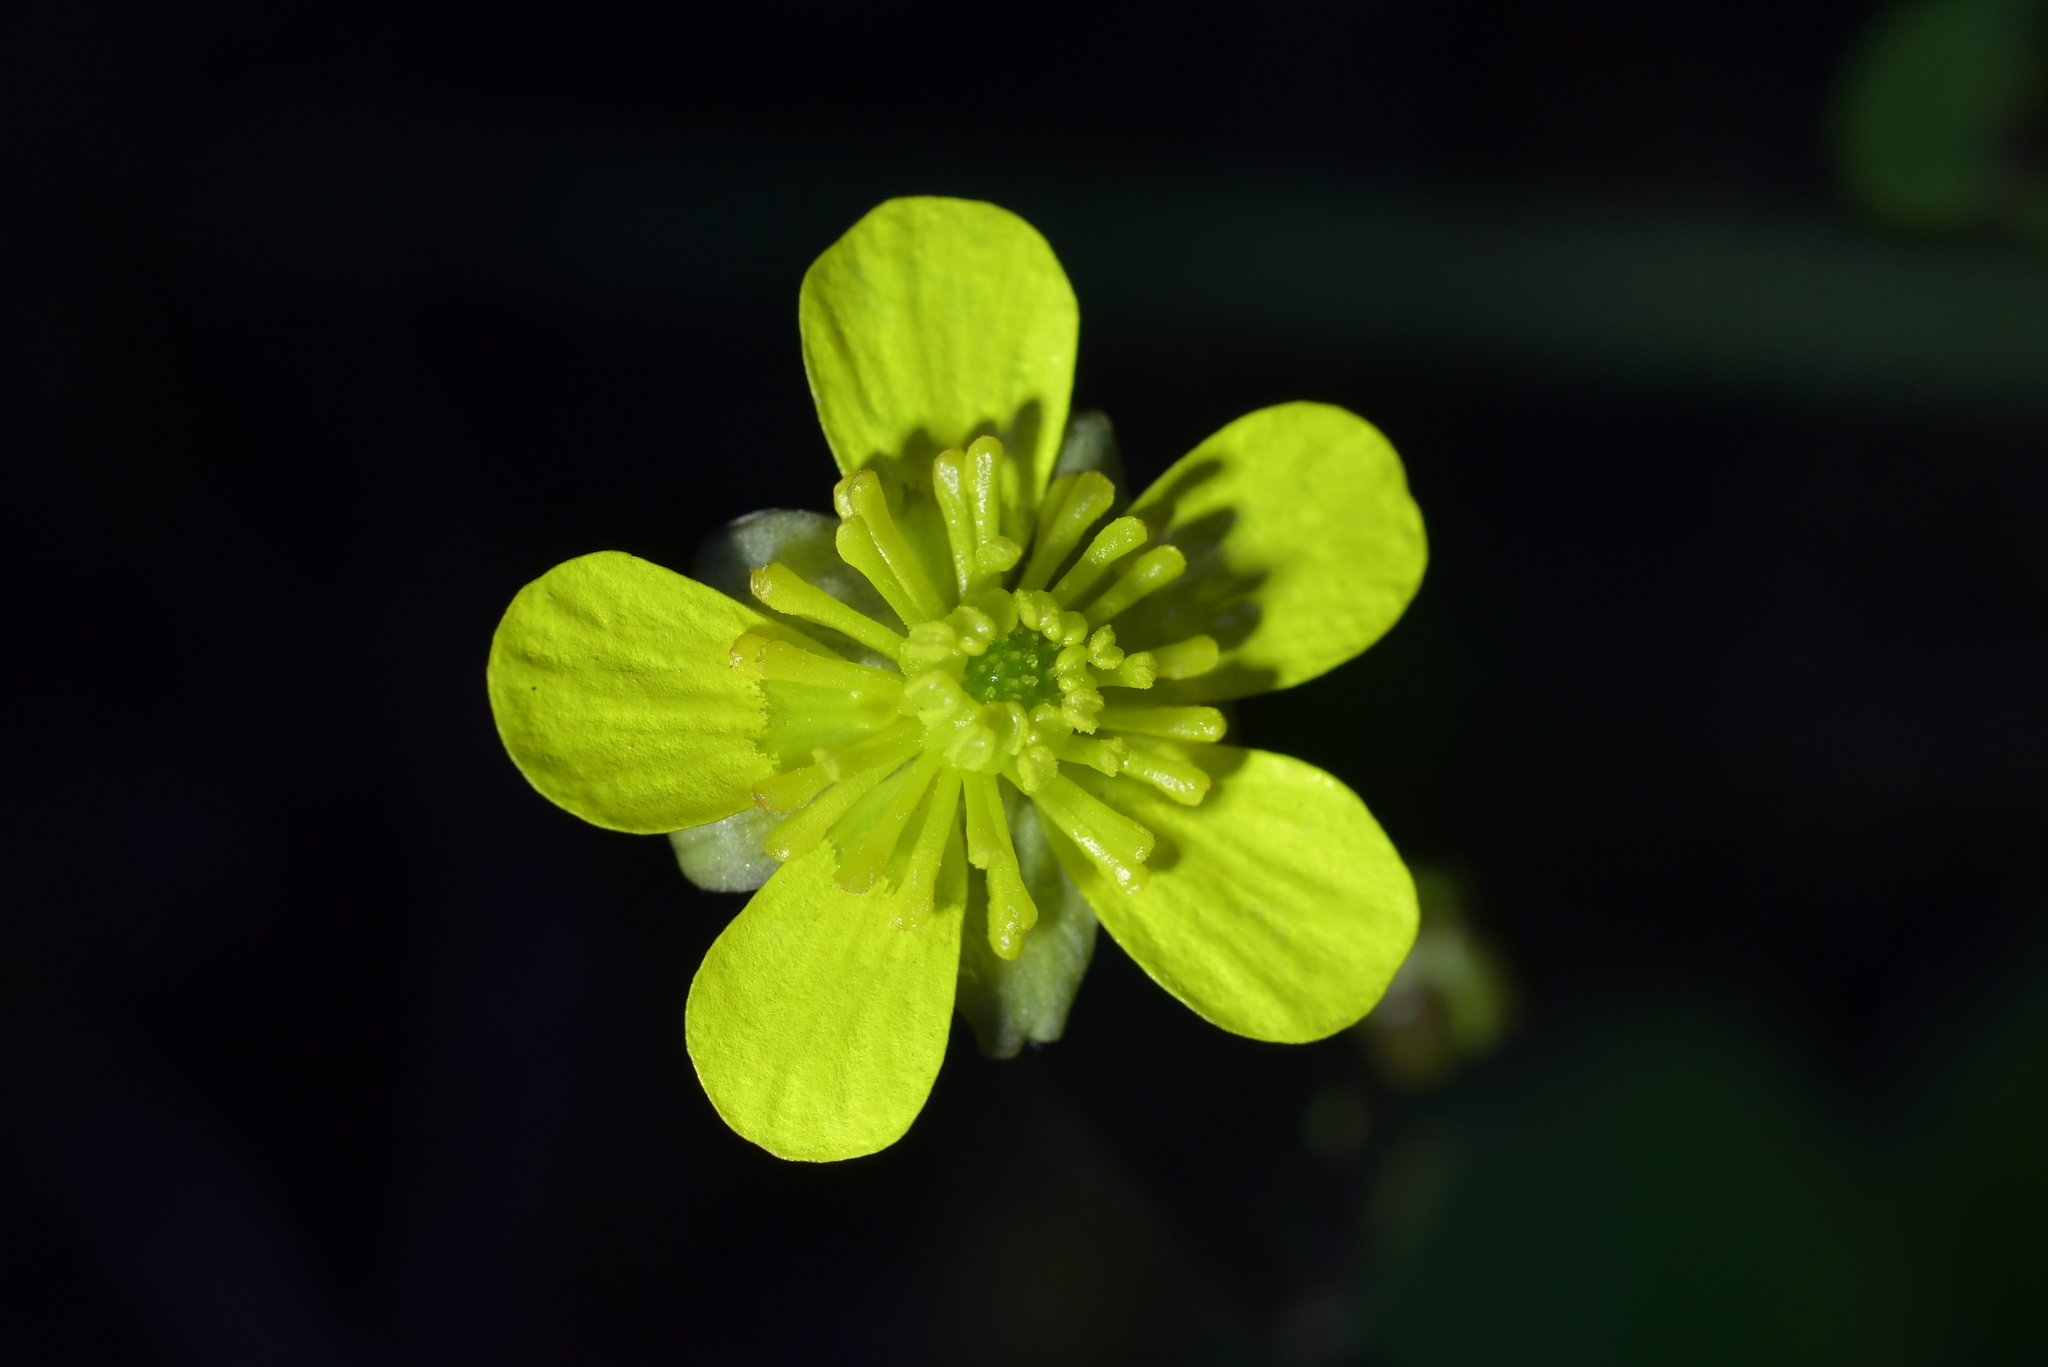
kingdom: Plantae
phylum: Tracheophyta
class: Magnoliopsida
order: Ranunculales
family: Ranunculaceae
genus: Ranunculus
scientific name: Ranunculus insignis
